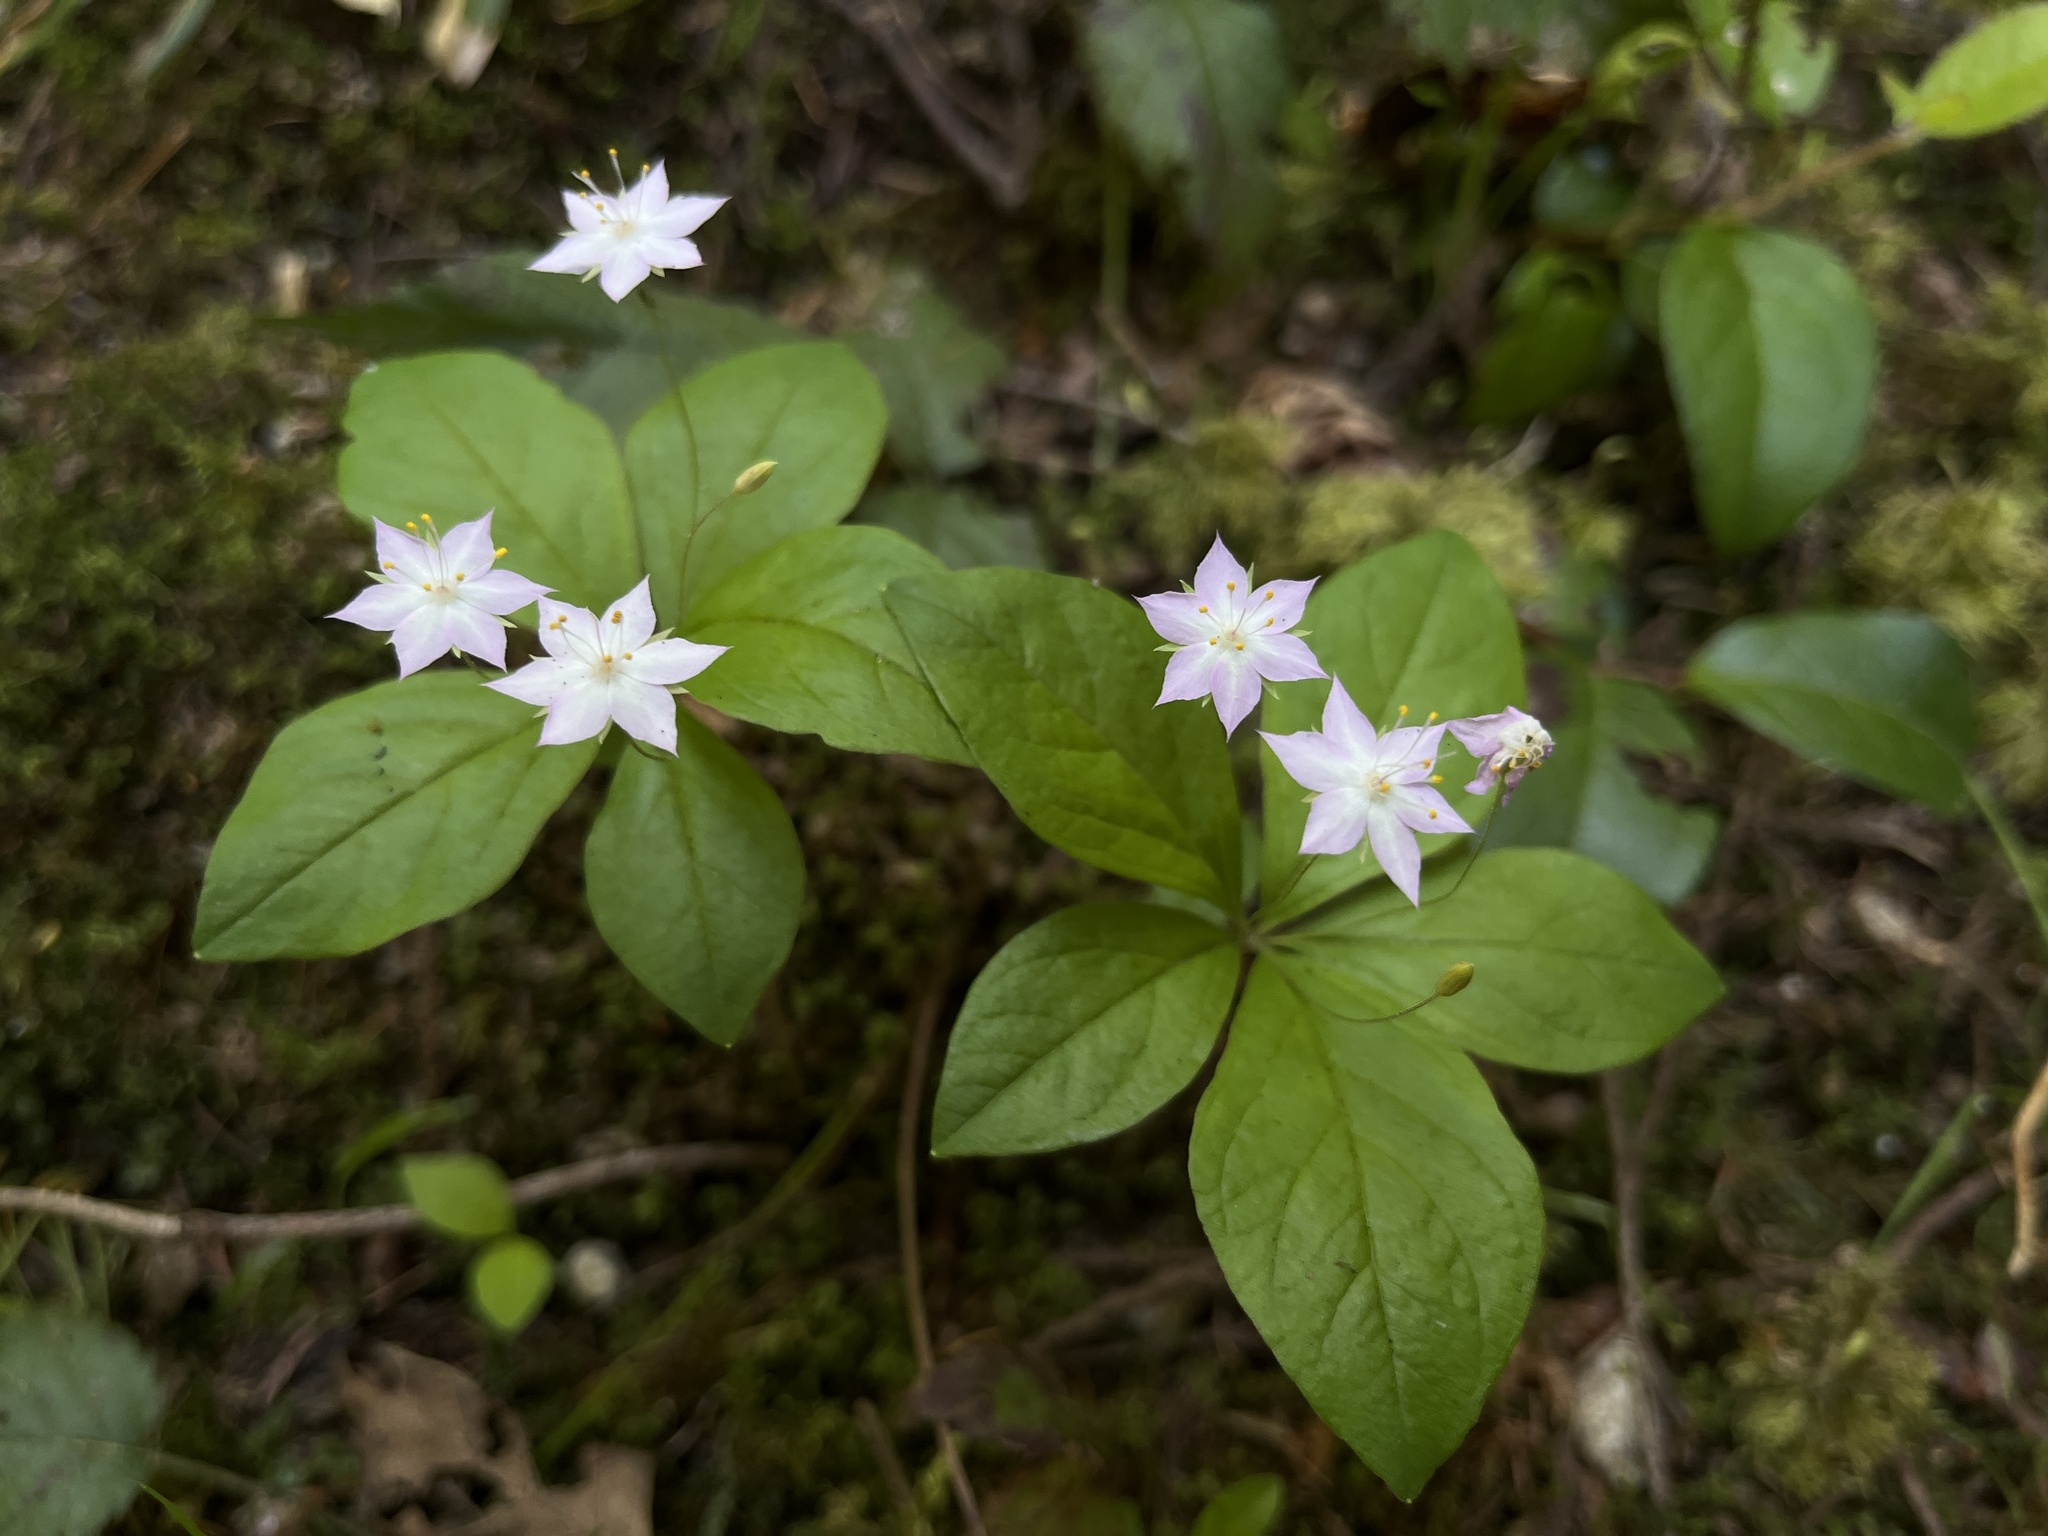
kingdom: Plantae
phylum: Tracheophyta
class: Magnoliopsida
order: Ericales
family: Primulaceae
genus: Lysimachia
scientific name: Lysimachia latifolia
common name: Pacific starflower
